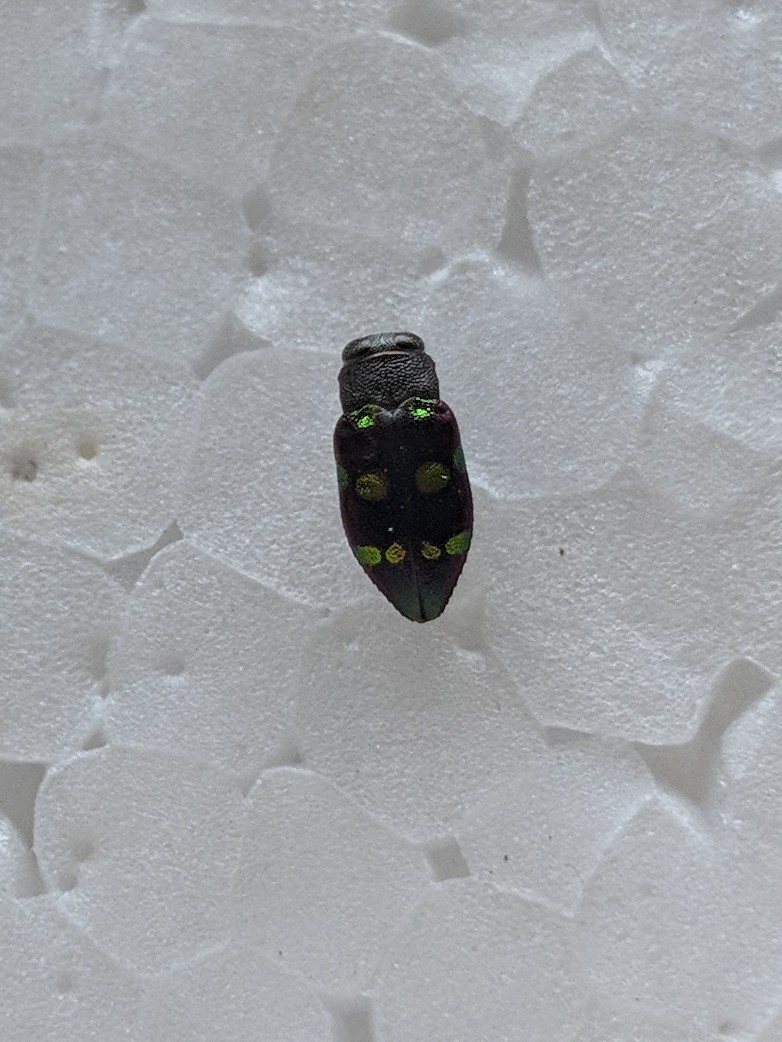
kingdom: Animalia
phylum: Arthropoda
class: Insecta
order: Coleoptera
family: Buprestidae
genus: Chrysobothris
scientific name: Chrysobothris chrysoela
